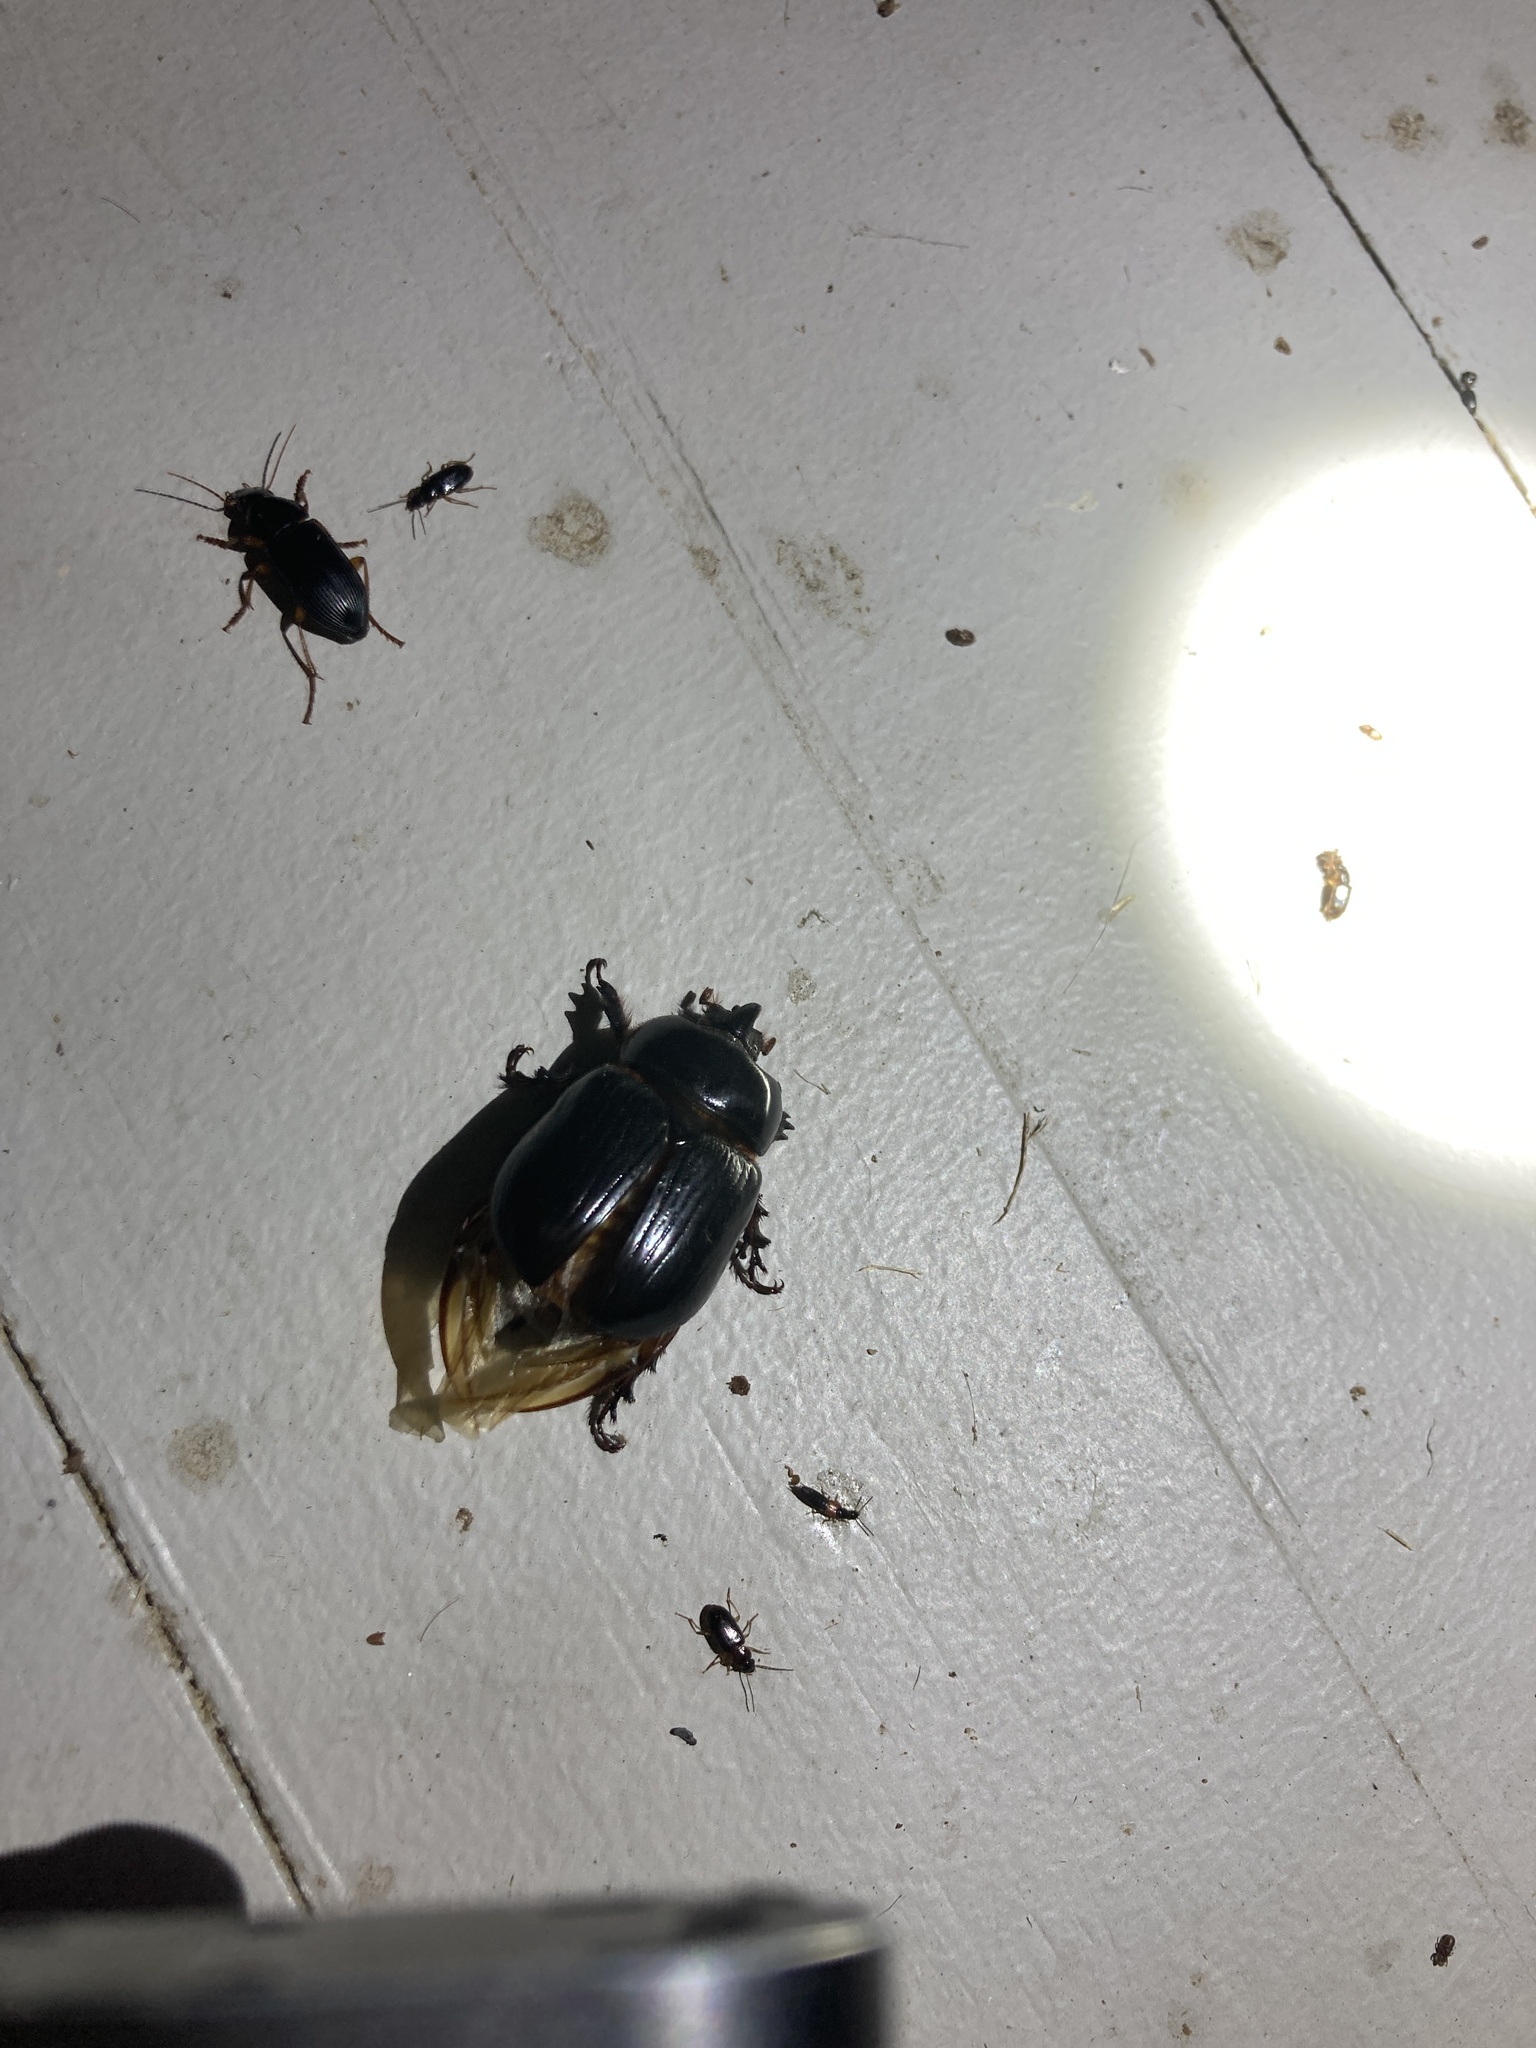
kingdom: Animalia
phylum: Arthropoda
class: Insecta
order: Coleoptera
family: Scarabaeidae
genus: Xyloryctes
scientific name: Xyloryctes jamaicensis
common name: Eastern rhinoceros beetle
